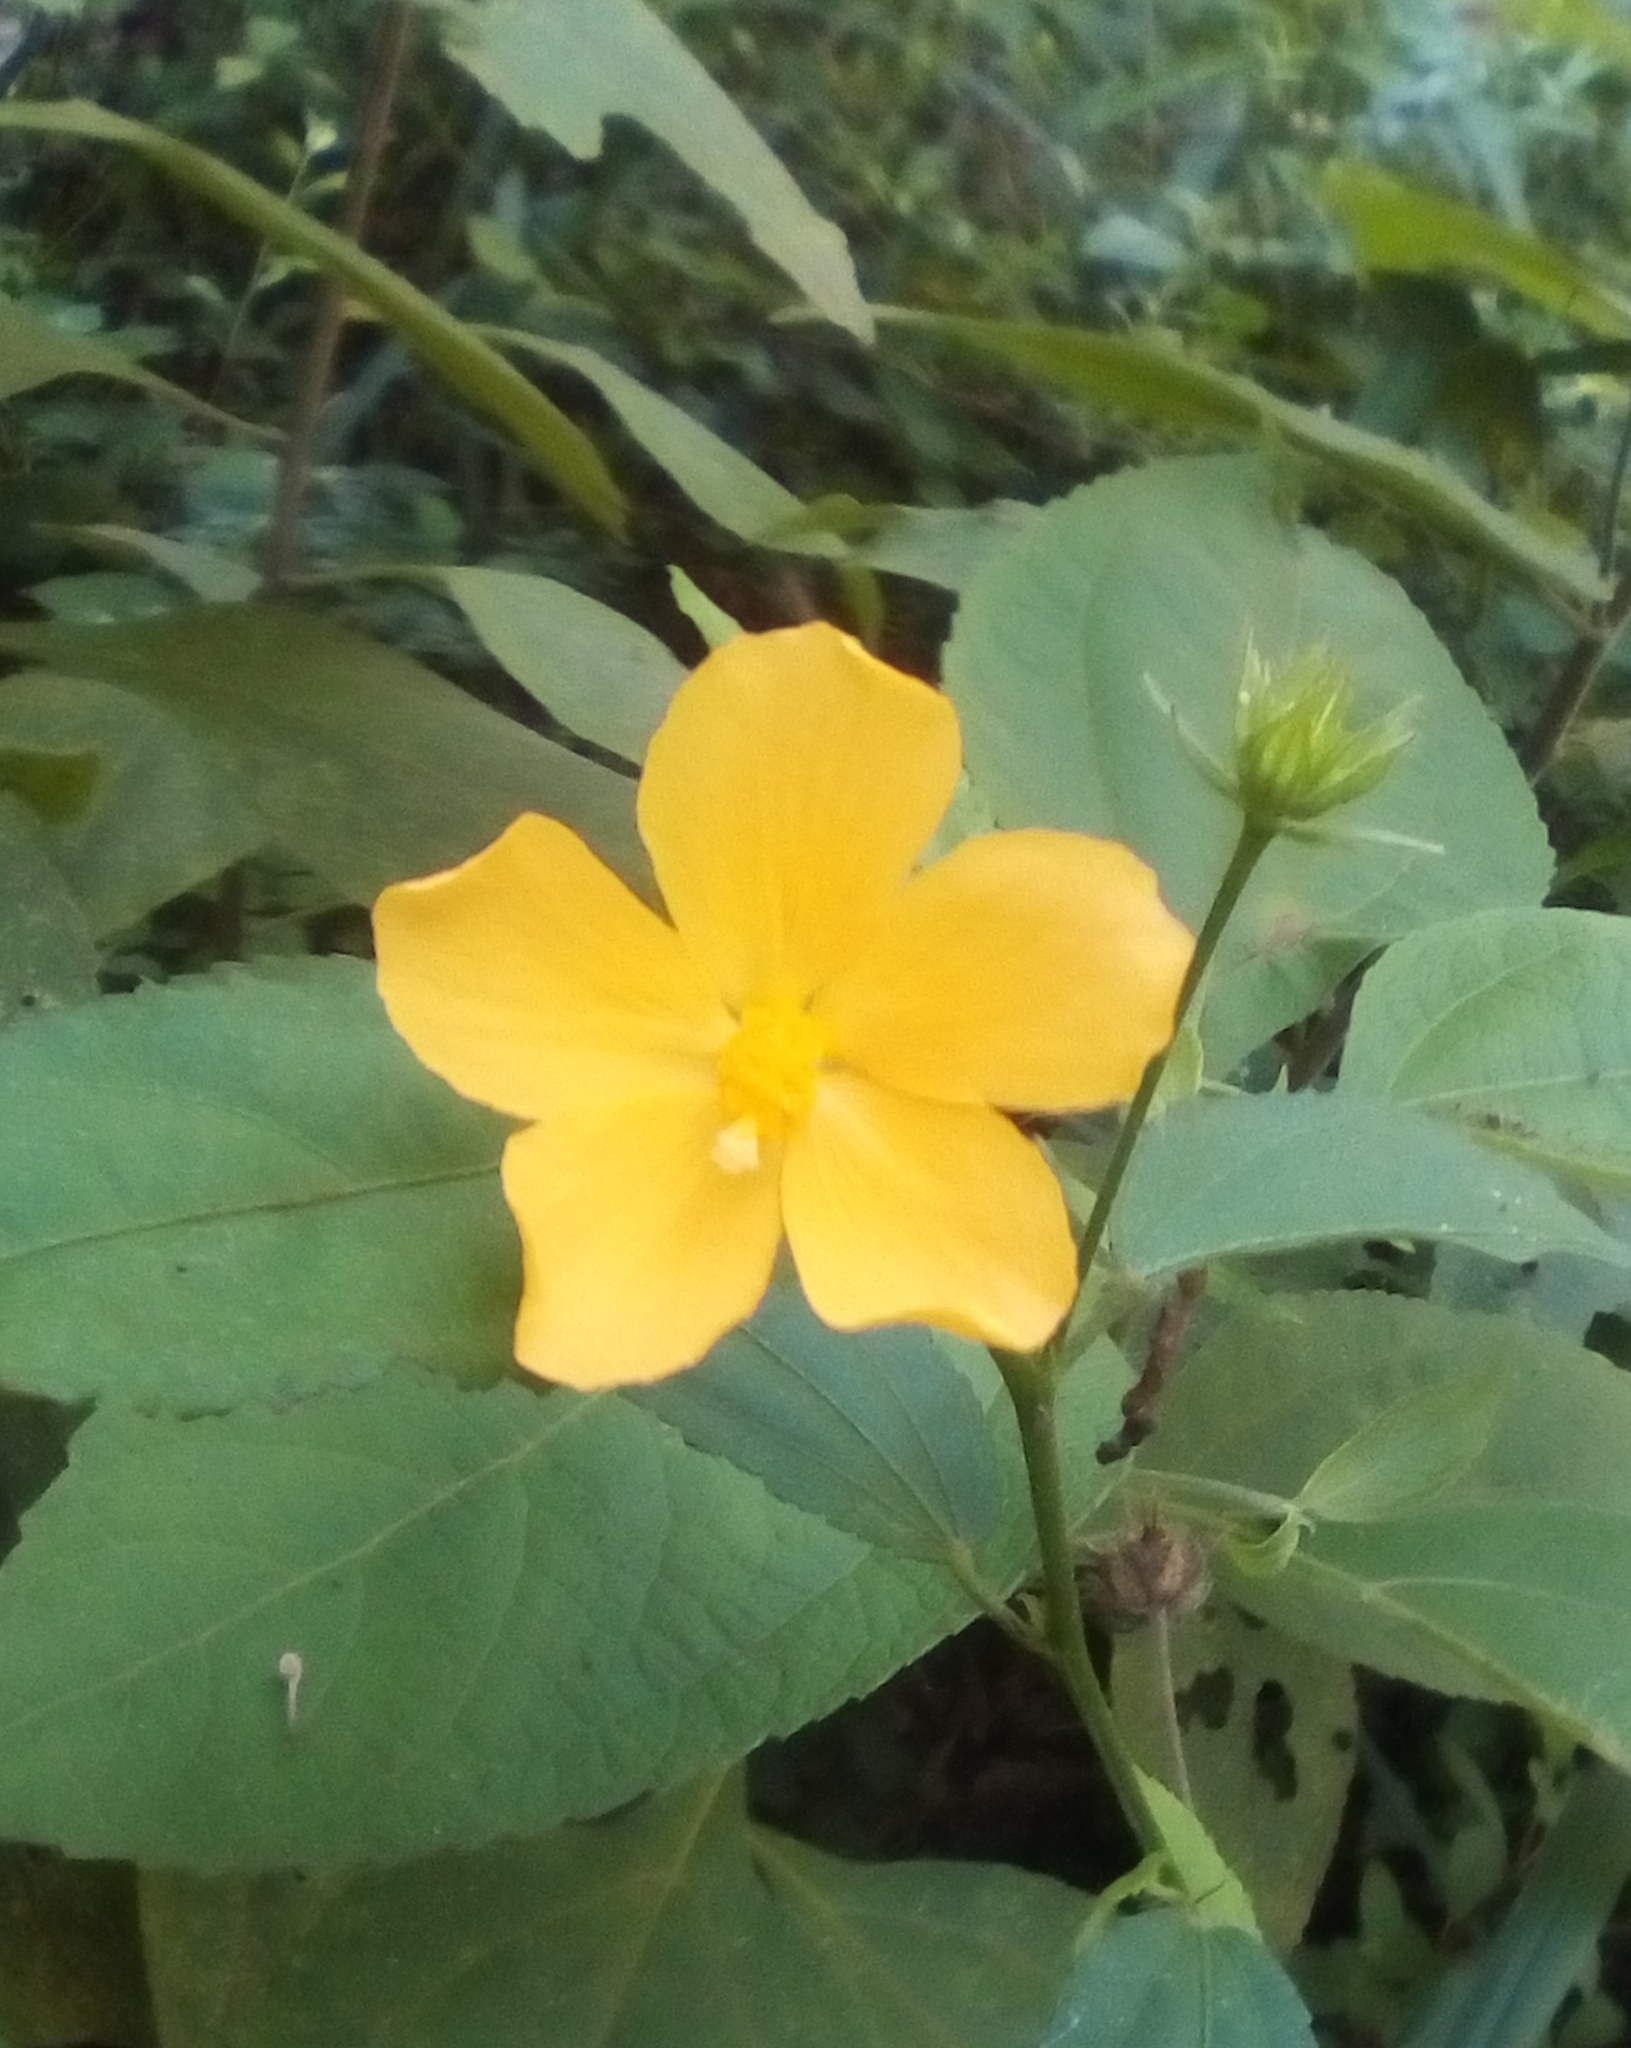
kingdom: Plantae
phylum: Tracheophyta
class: Magnoliopsida
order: Malvales
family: Malvaceae
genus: Pavonia
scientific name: Pavonia uniflora
